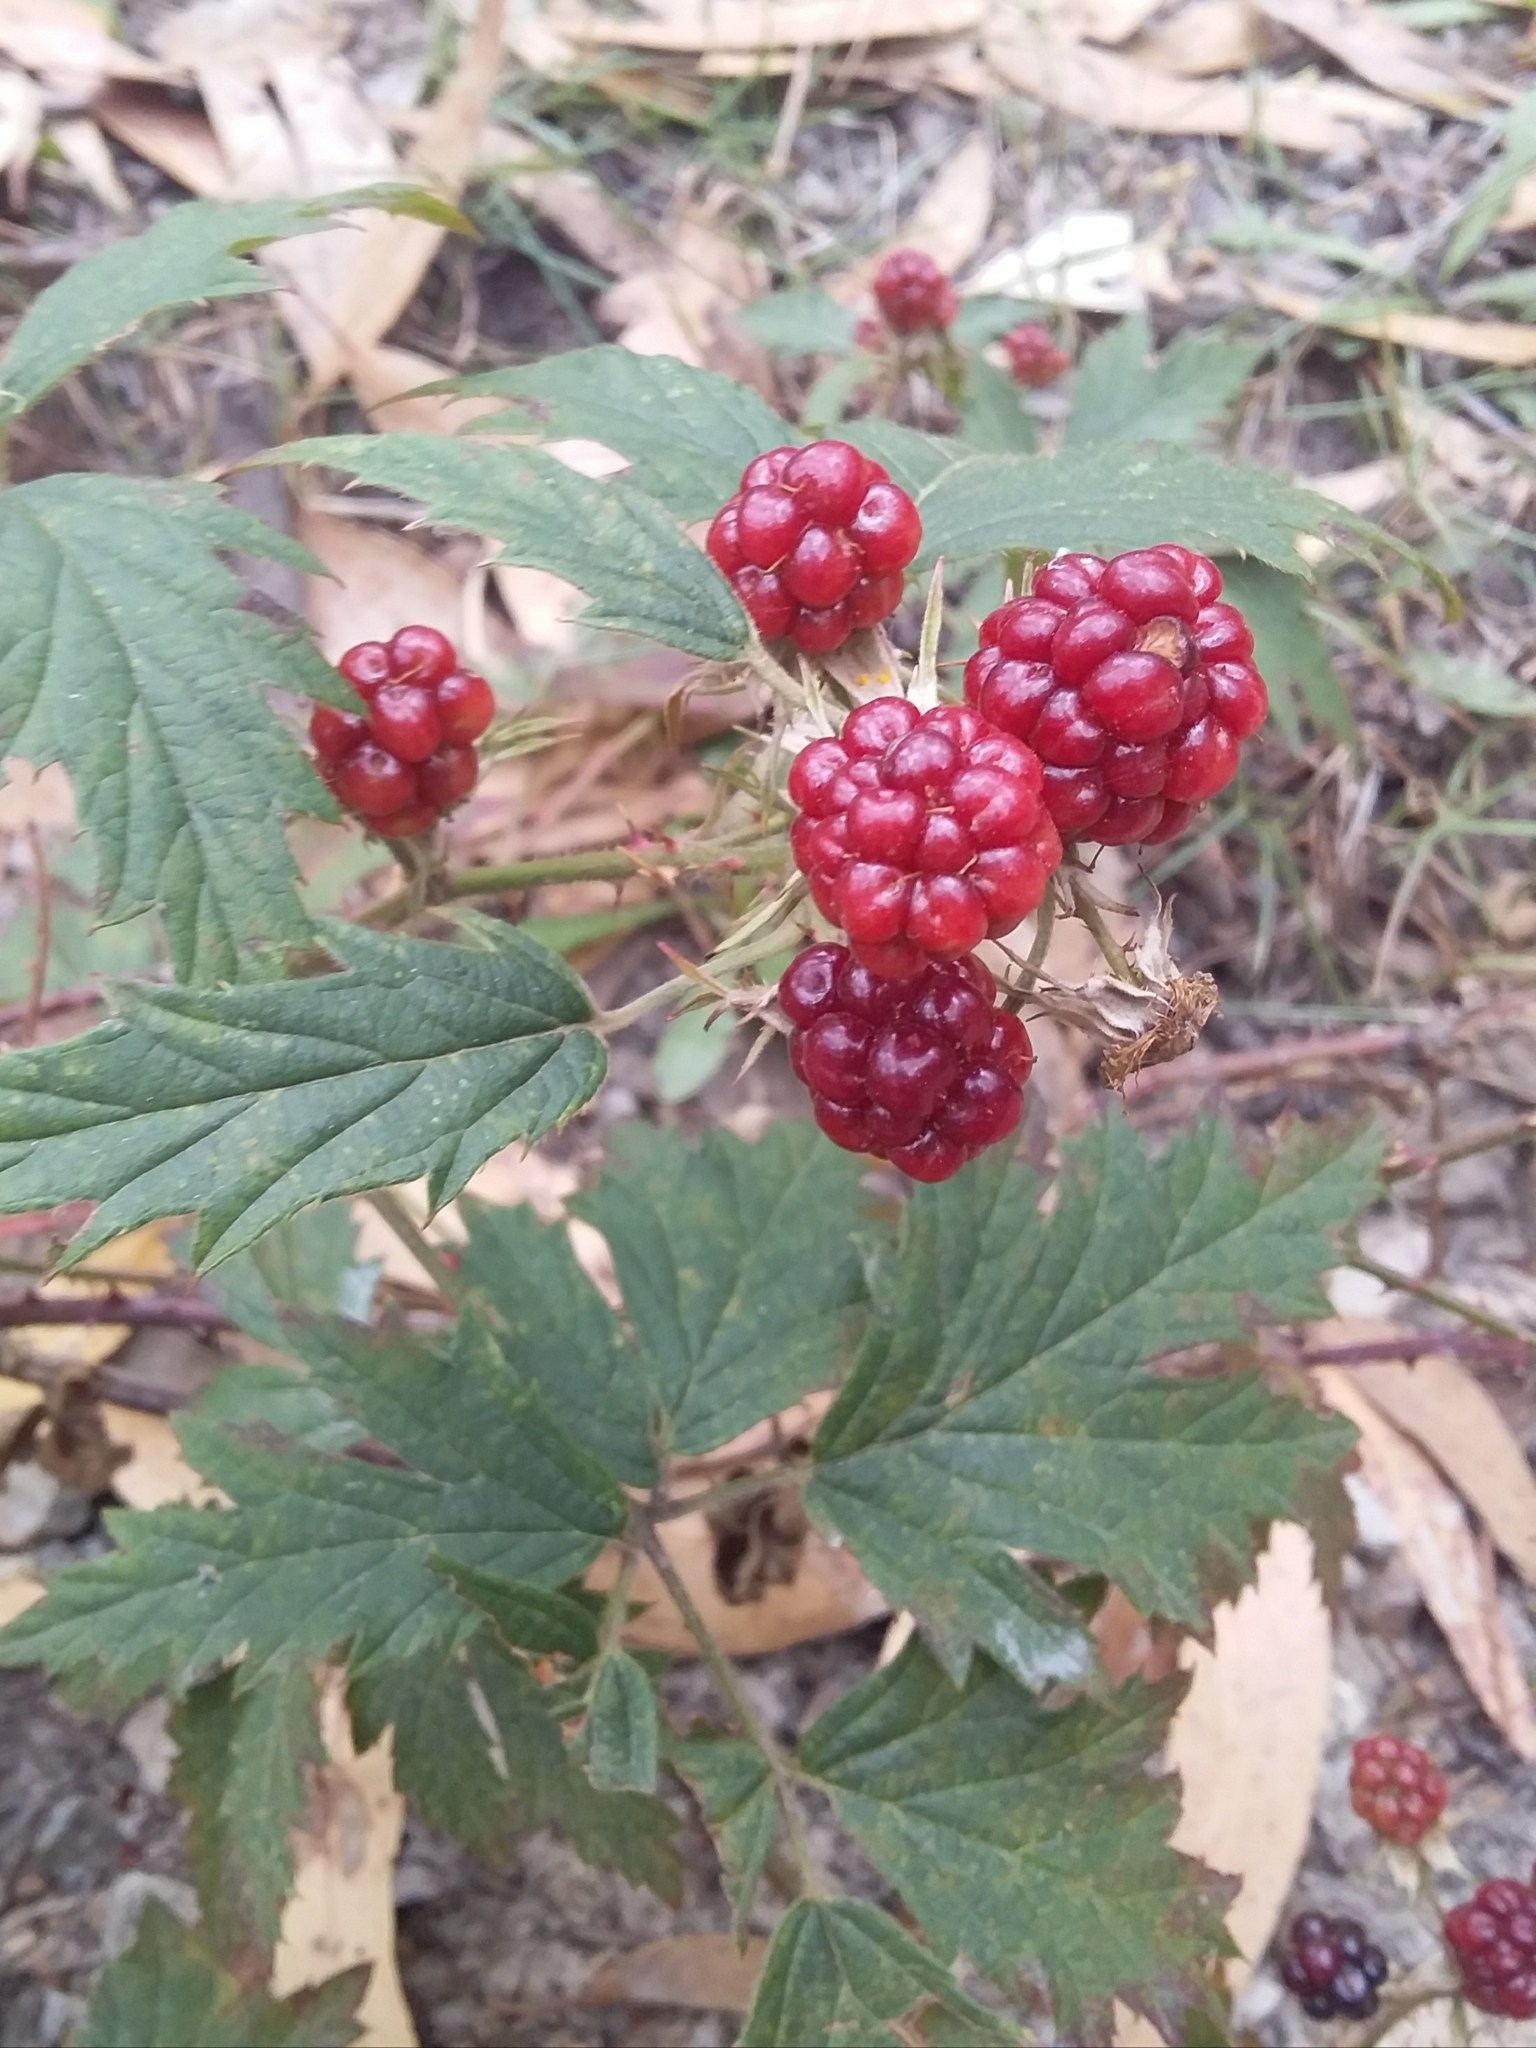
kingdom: Plantae
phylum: Tracheophyta
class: Magnoliopsida
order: Rosales
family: Rosaceae
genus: Rubus
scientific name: Rubus laciniatus
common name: Evergreen blackberry
